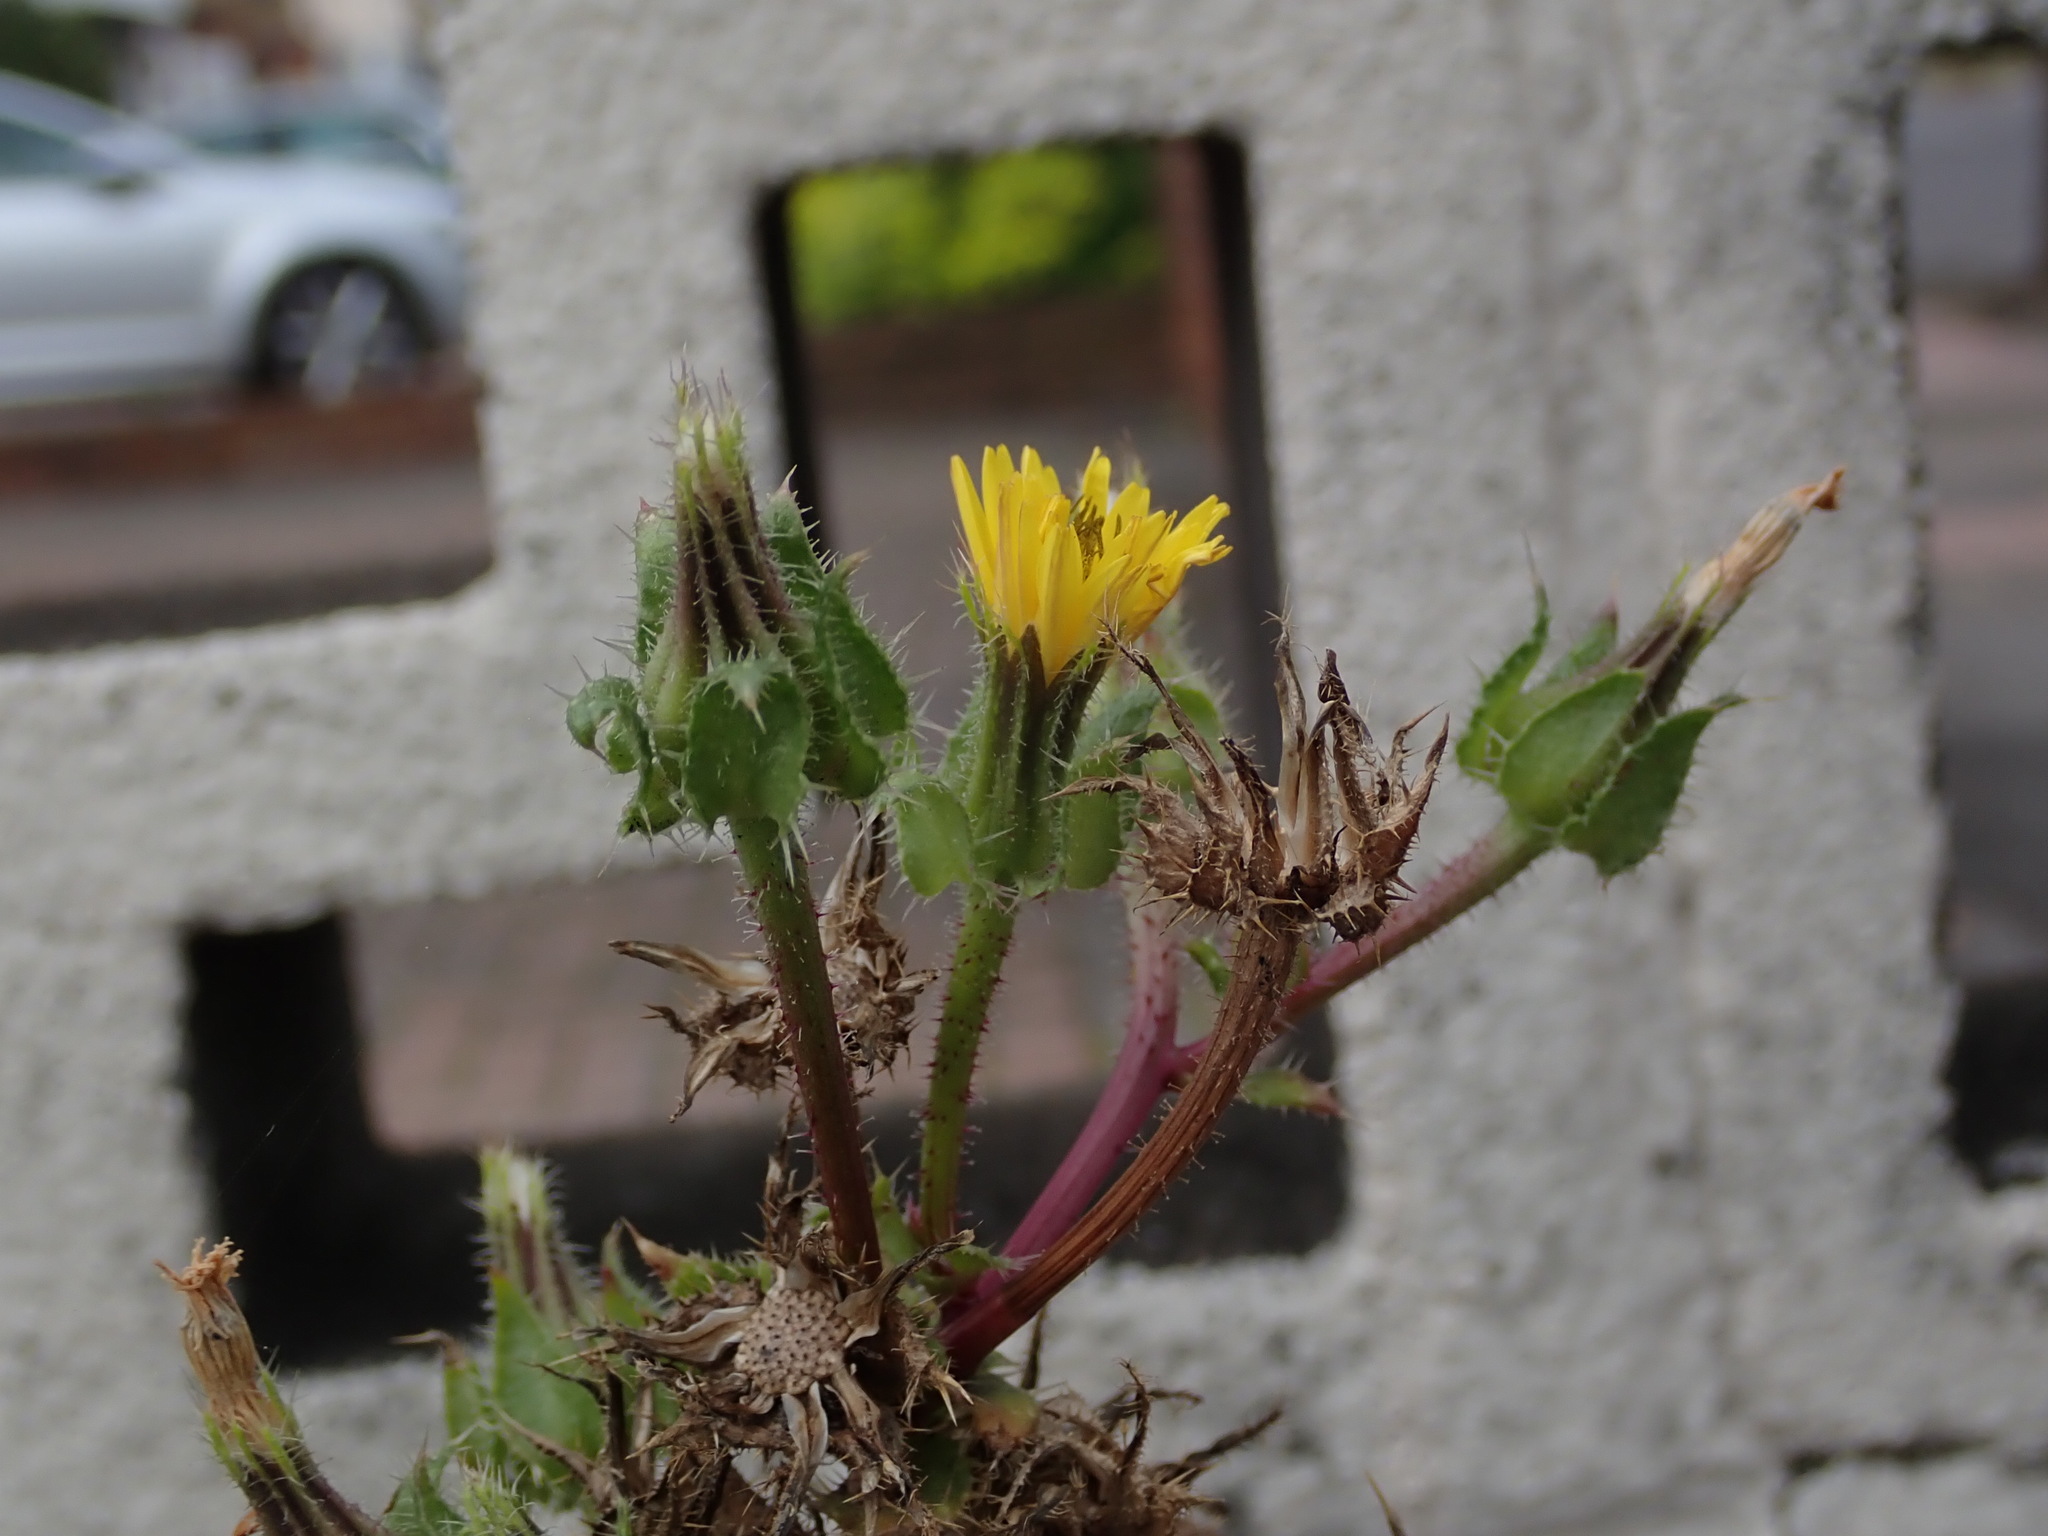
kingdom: Plantae
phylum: Tracheophyta
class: Magnoliopsida
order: Asterales
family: Asteraceae
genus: Helminthotheca
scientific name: Helminthotheca echioides
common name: Ox-tongue
